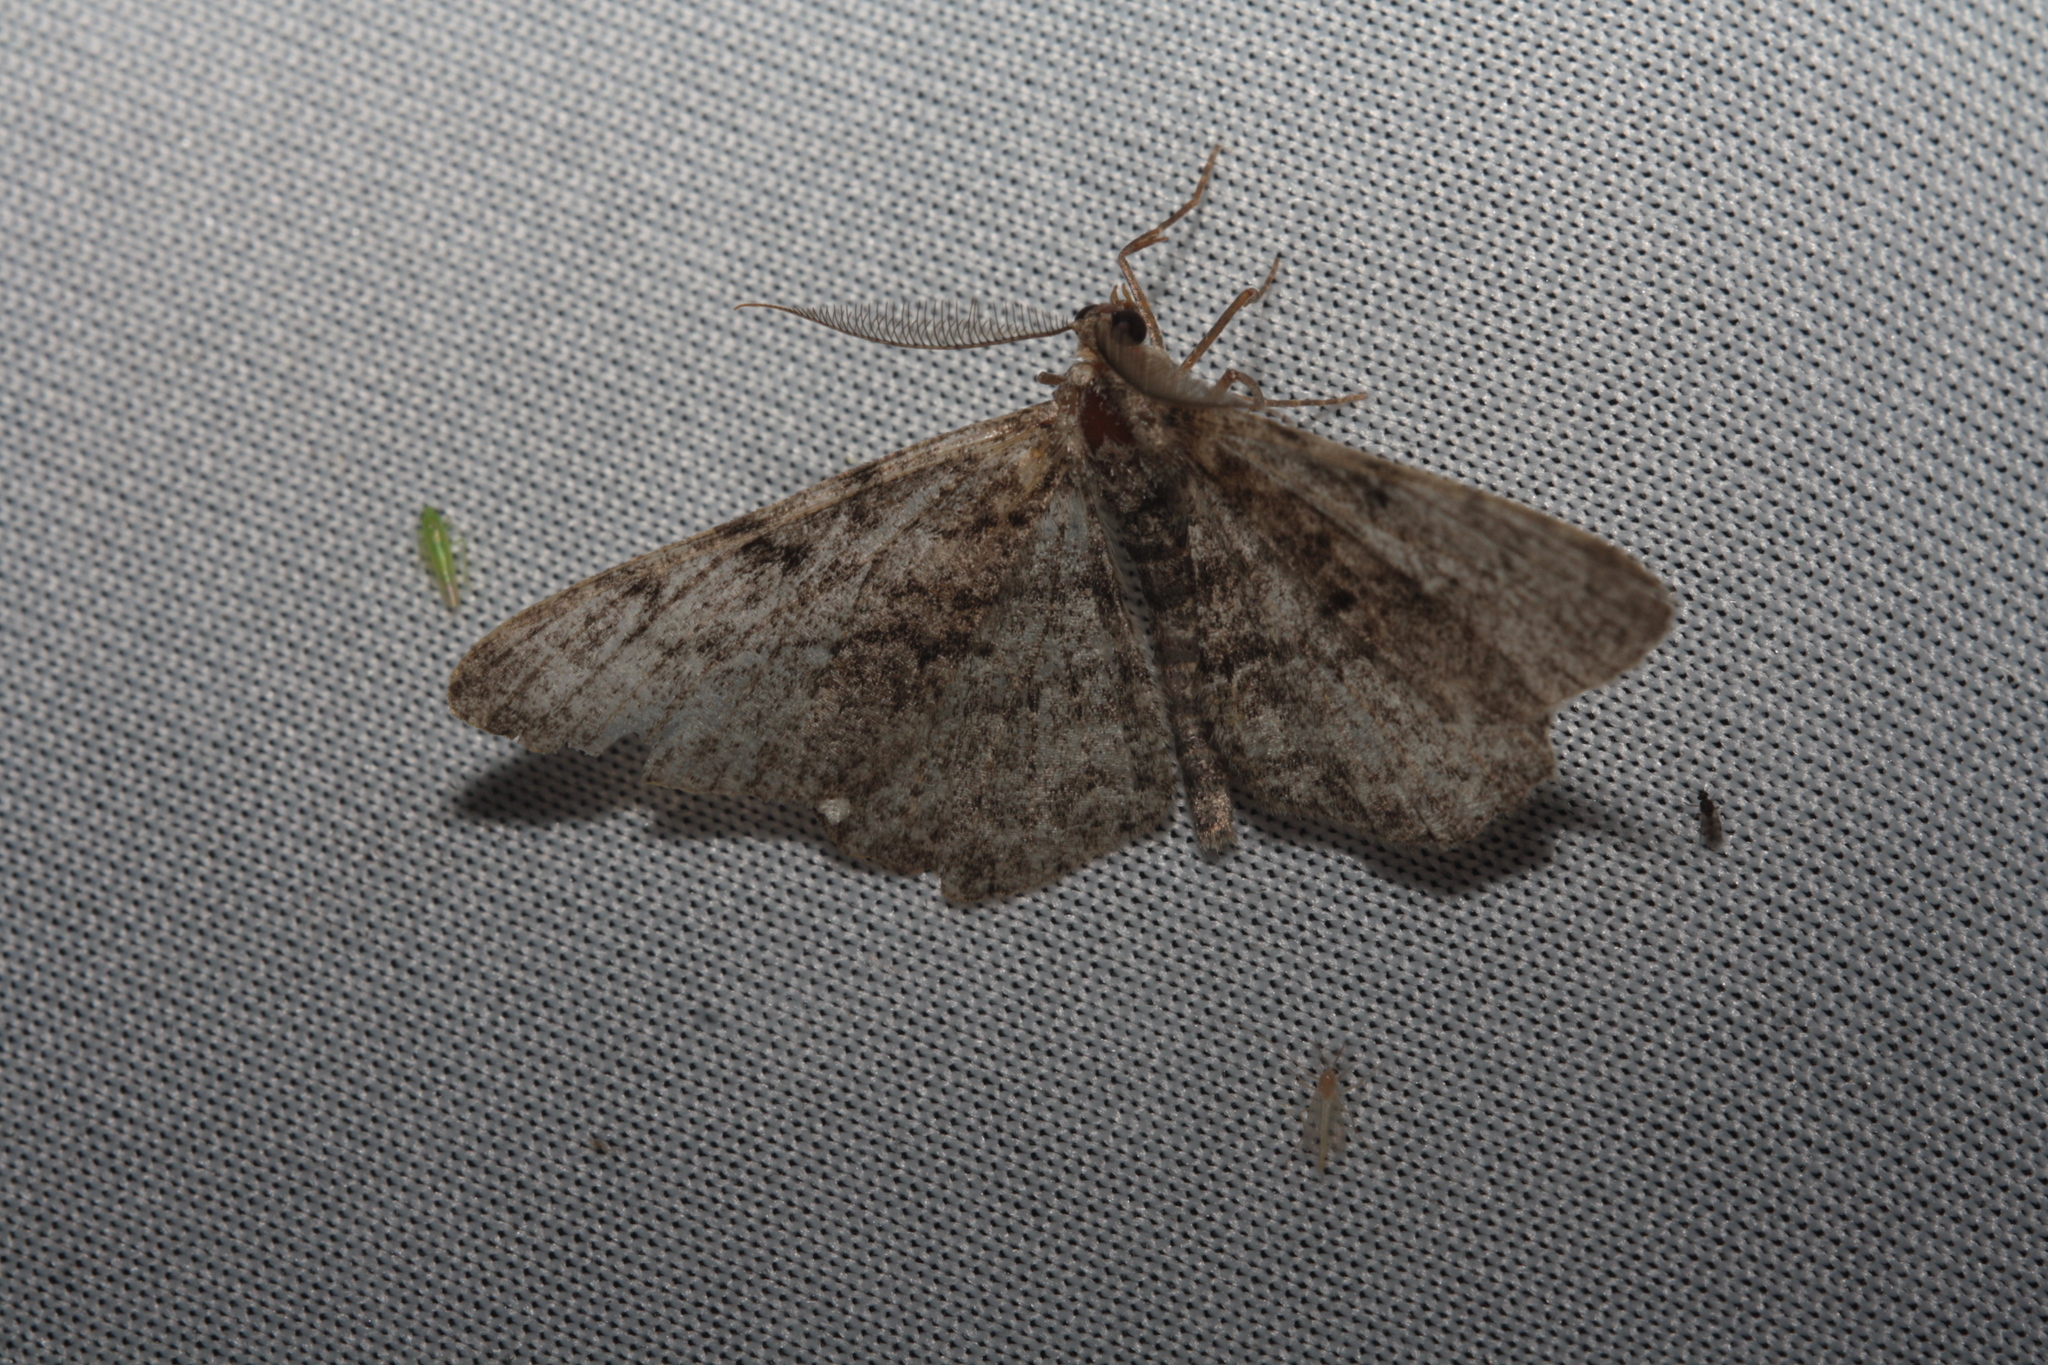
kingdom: Animalia
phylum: Arthropoda
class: Insecta
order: Lepidoptera
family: Geometridae
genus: Peribatodes
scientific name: Peribatodes rhomboidaria
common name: Willow beauty
